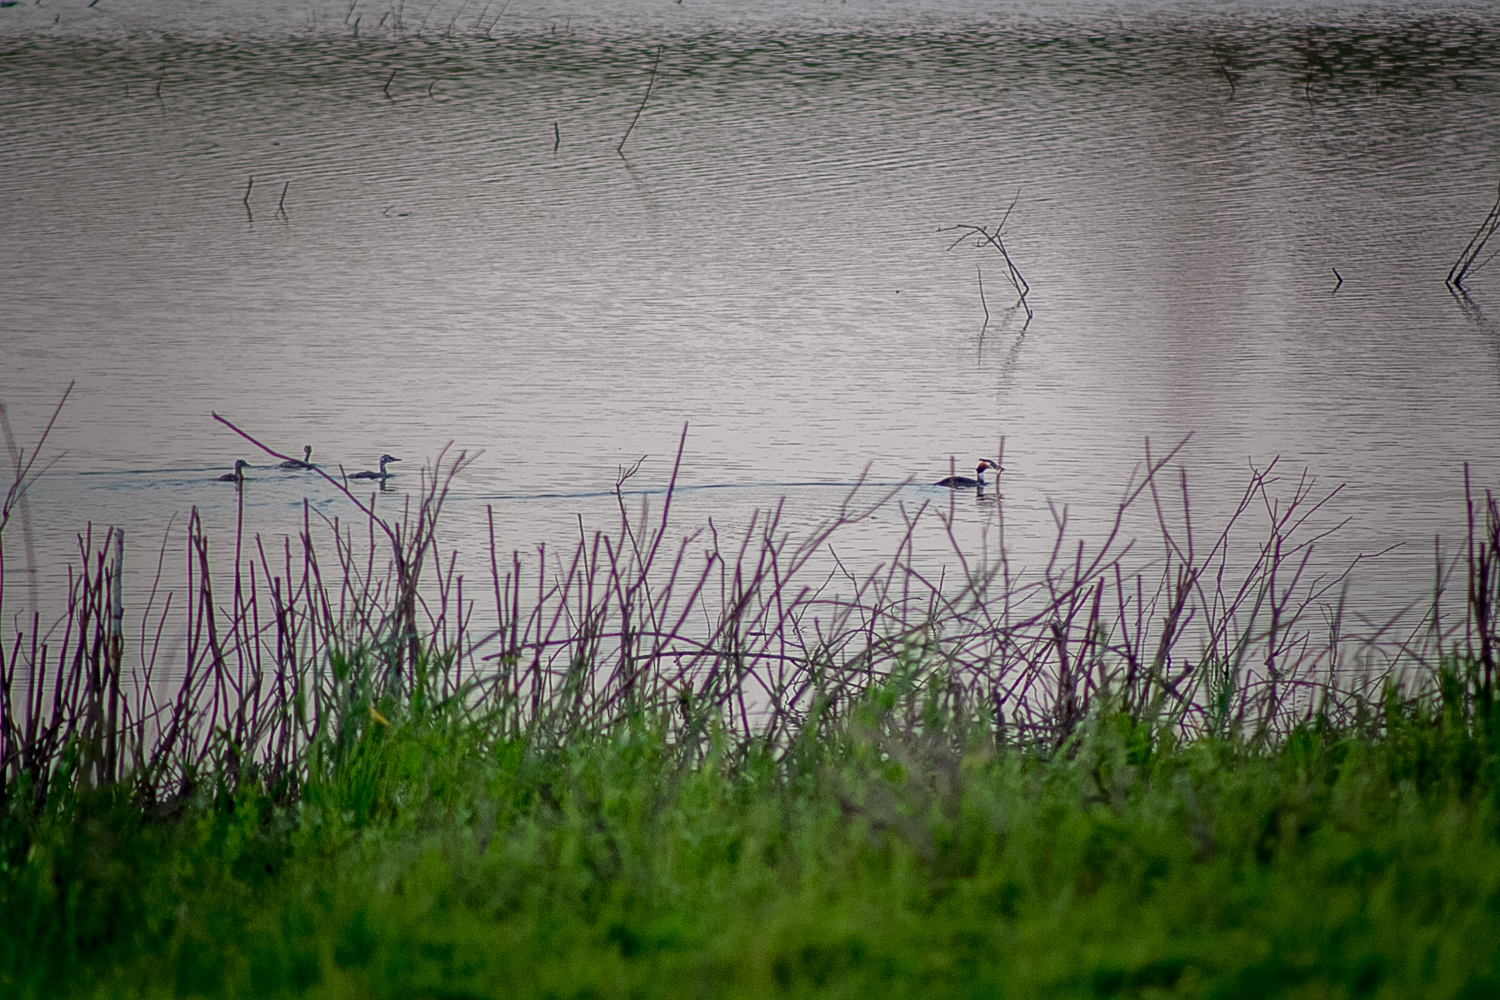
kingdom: Animalia
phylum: Chordata
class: Aves
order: Podicipediformes
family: Podicipedidae
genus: Podiceps
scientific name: Podiceps cristatus
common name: Great crested grebe
